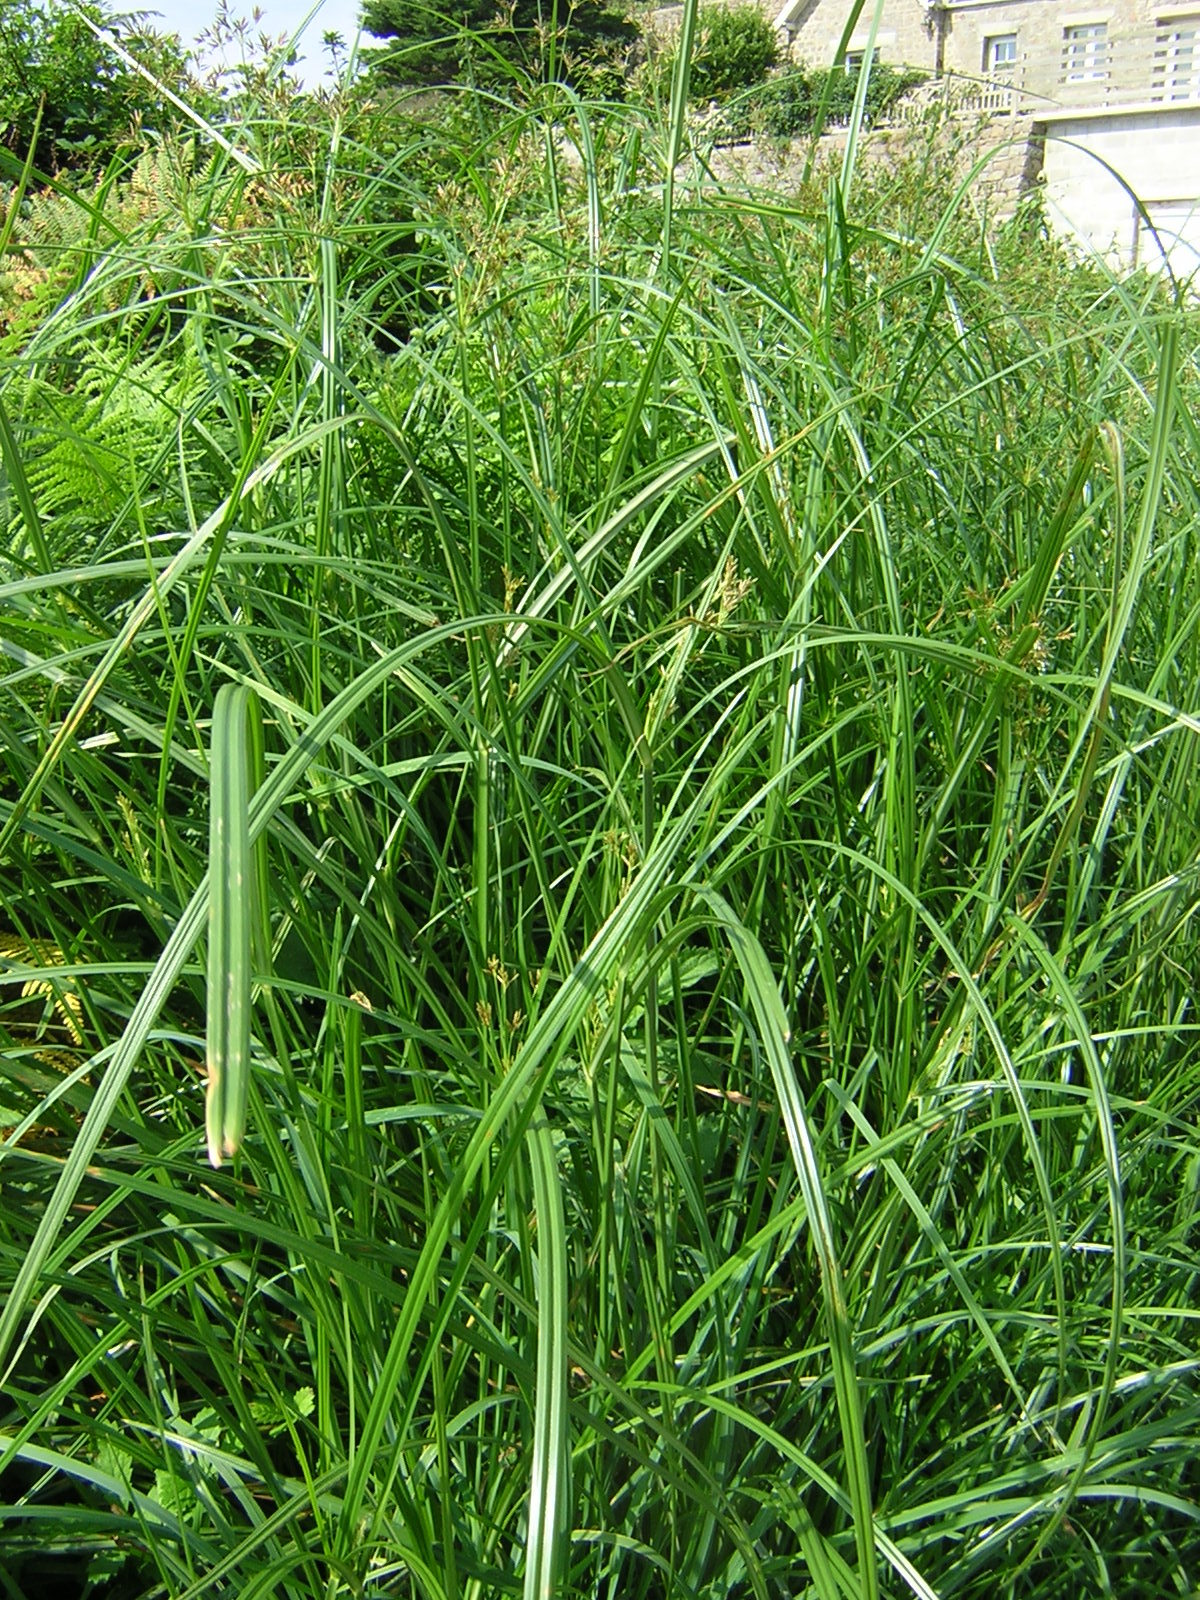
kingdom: Plantae
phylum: Tracheophyta
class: Liliopsida
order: Poales
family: Cyperaceae
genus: Cyperus
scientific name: Cyperus longus
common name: Galingale
